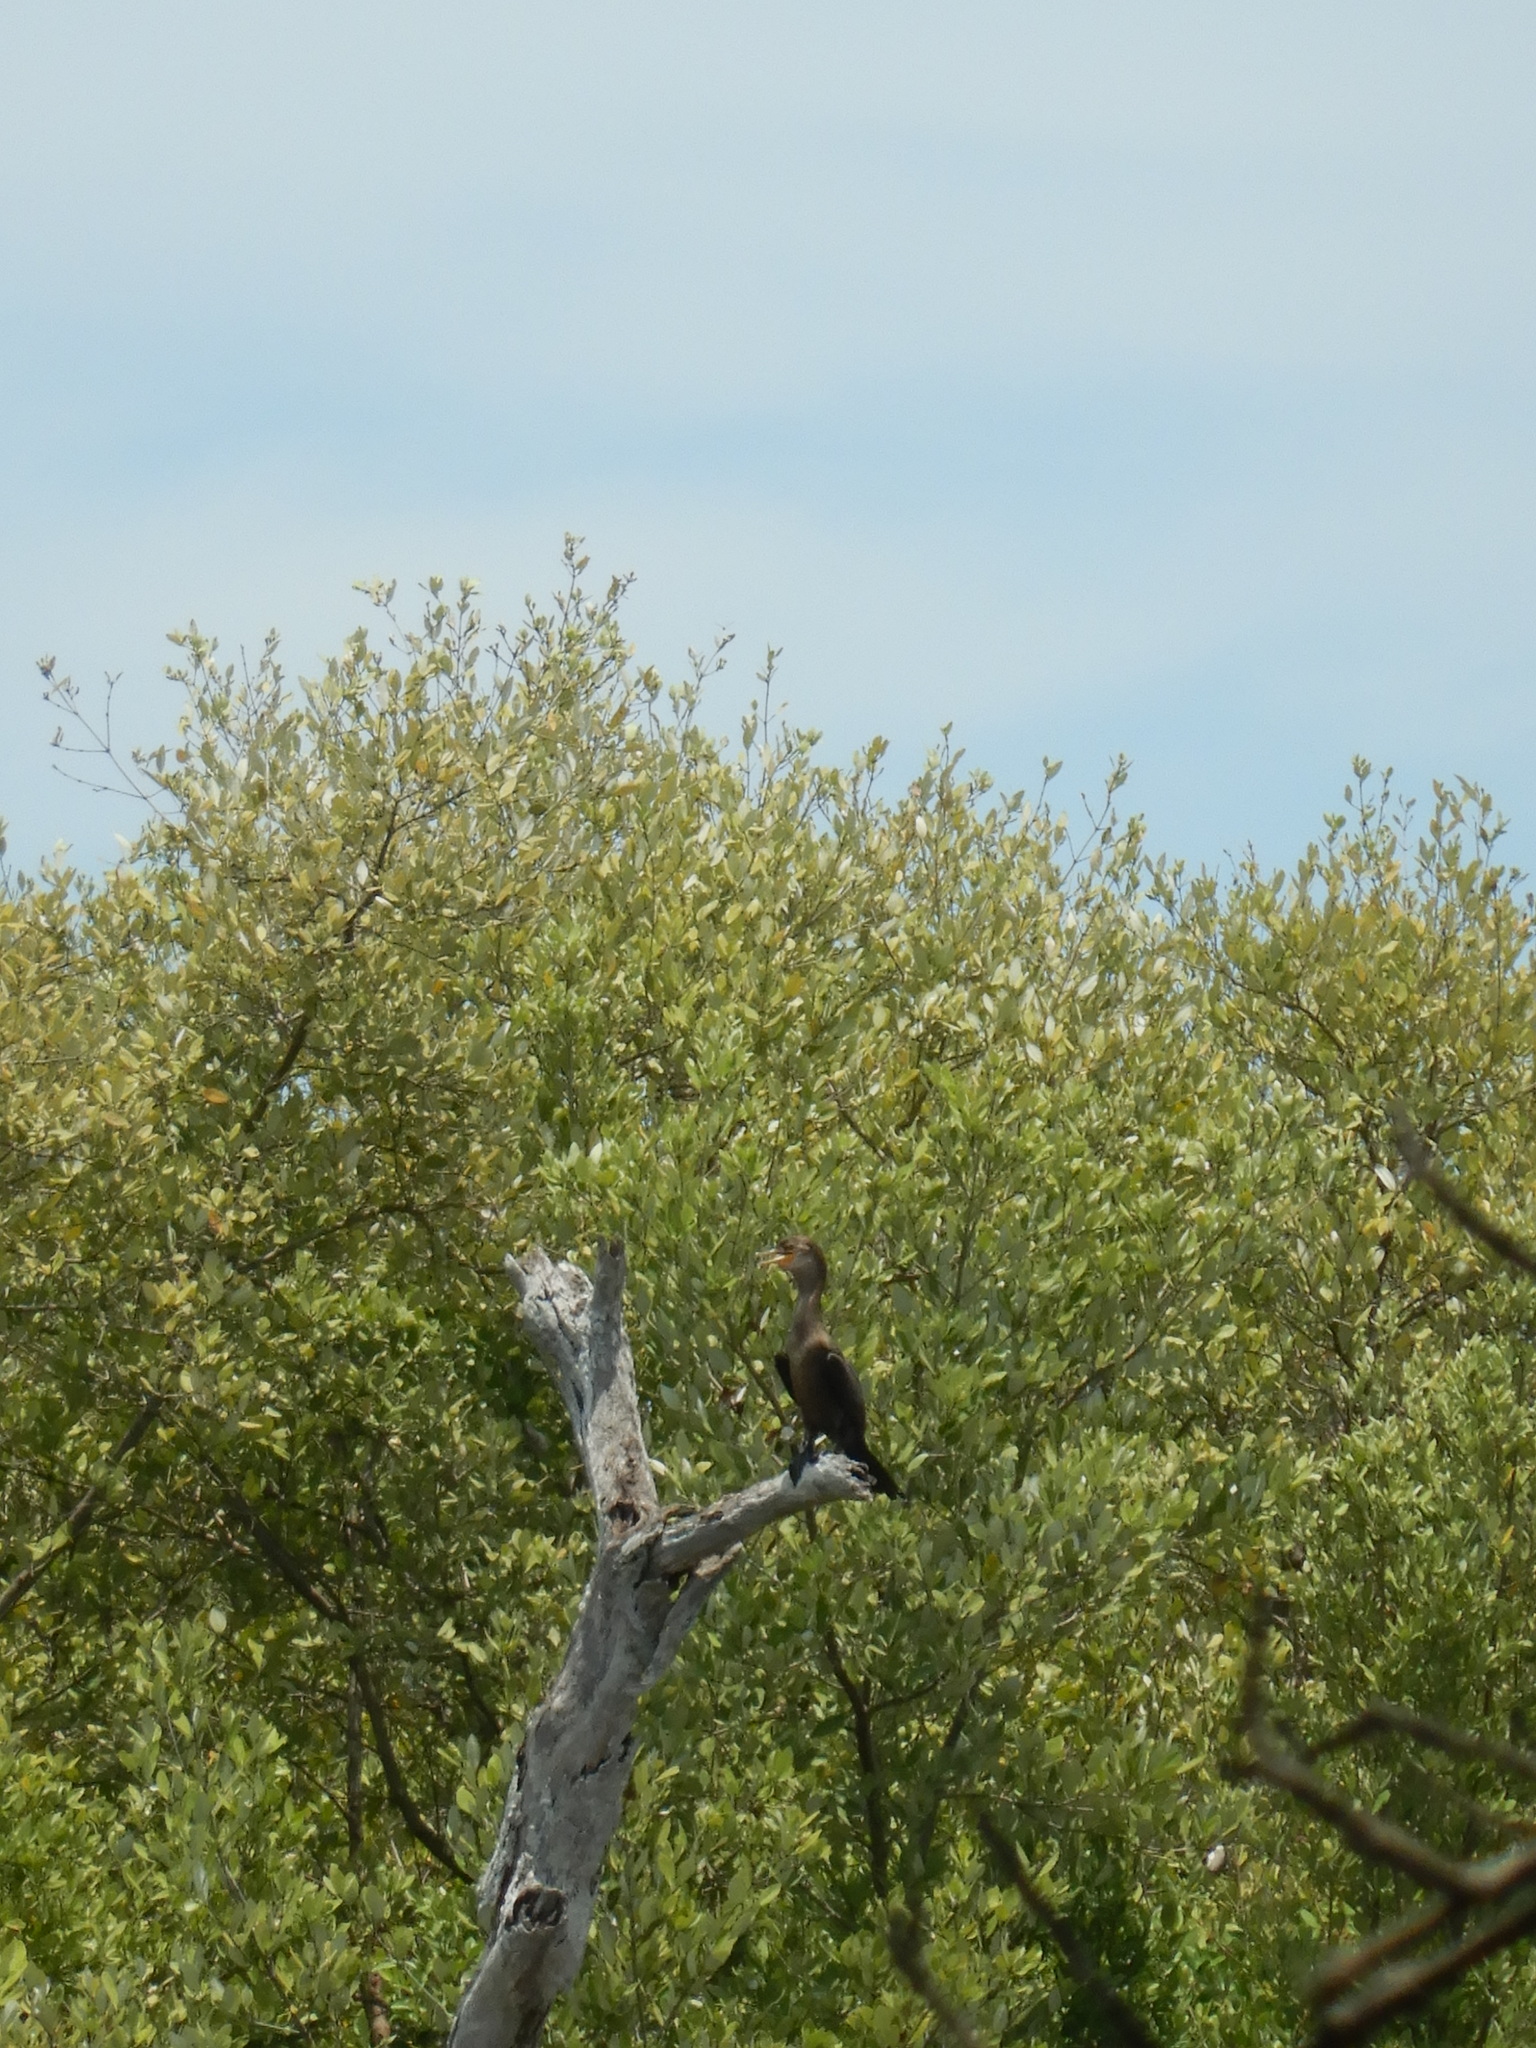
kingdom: Animalia
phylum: Chordata
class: Aves
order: Suliformes
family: Phalacrocoracidae
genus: Phalacrocorax
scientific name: Phalacrocorax brasilianus
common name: Neotropic cormorant
